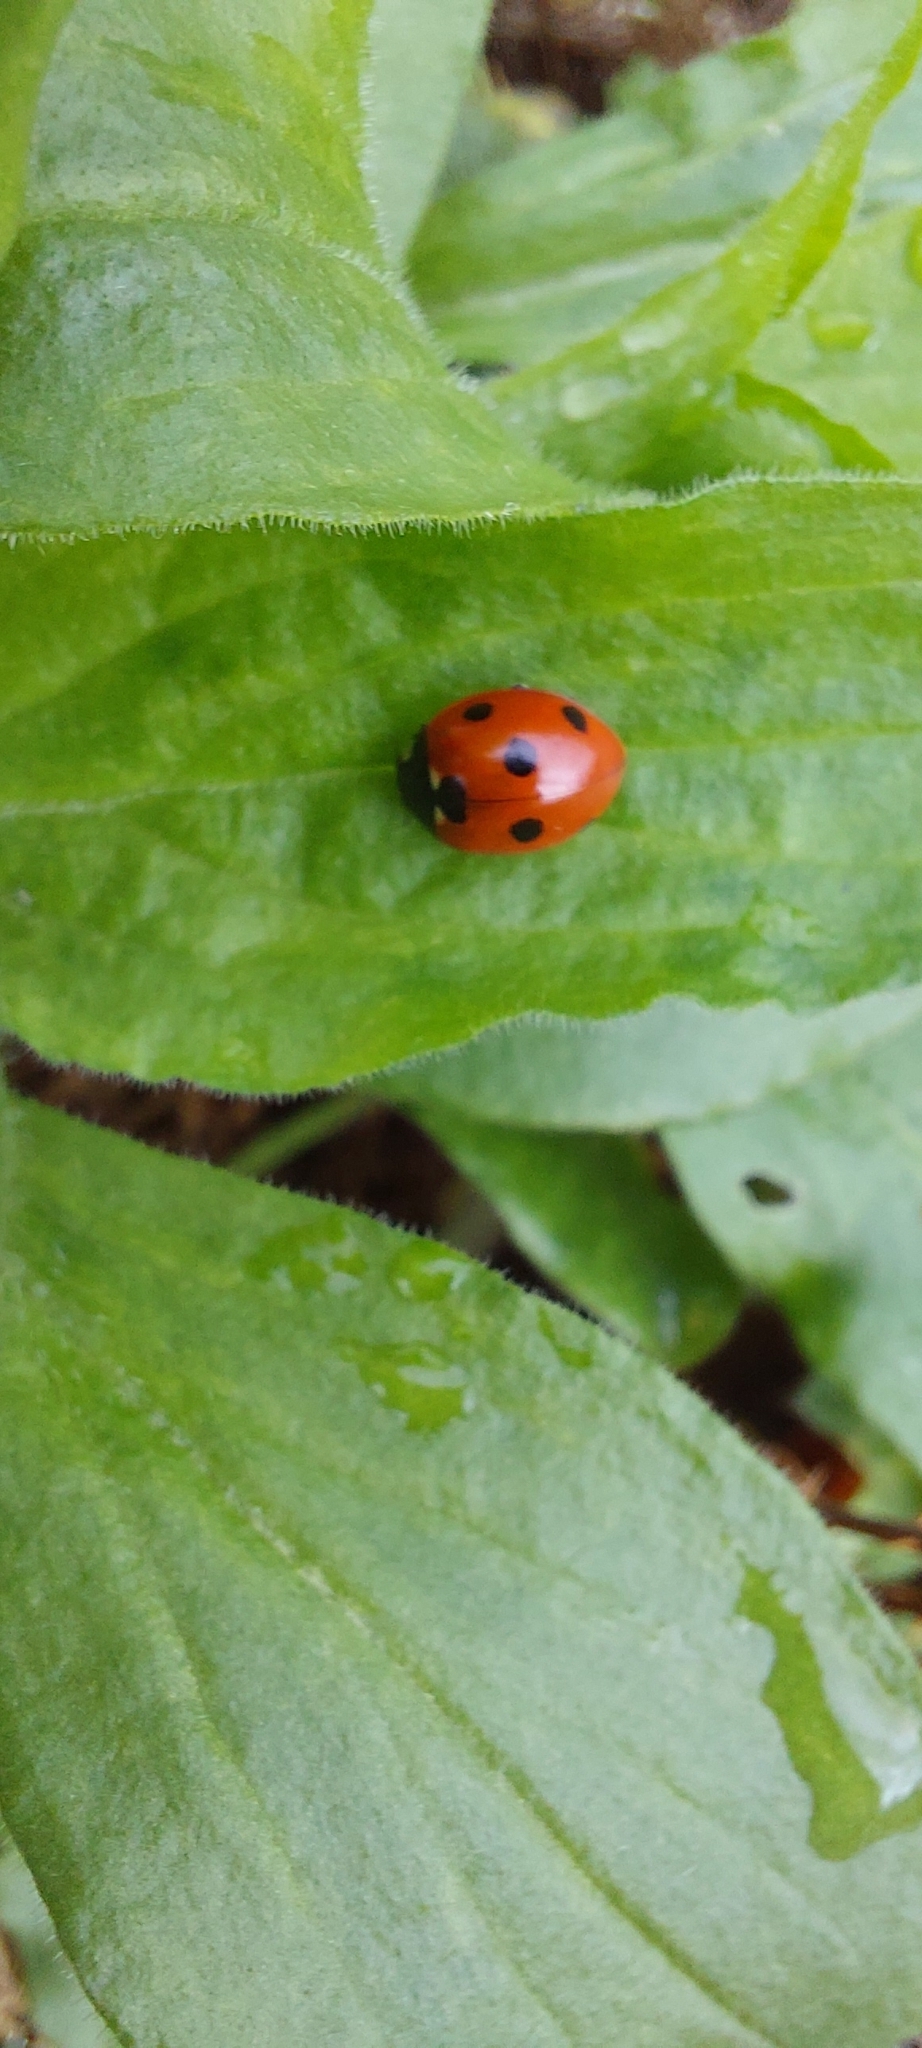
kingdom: Animalia
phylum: Arthropoda
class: Insecta
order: Coleoptera
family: Coccinellidae
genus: Coccinella
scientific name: Coccinella septempunctata
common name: Sevenspotted lady beetle
